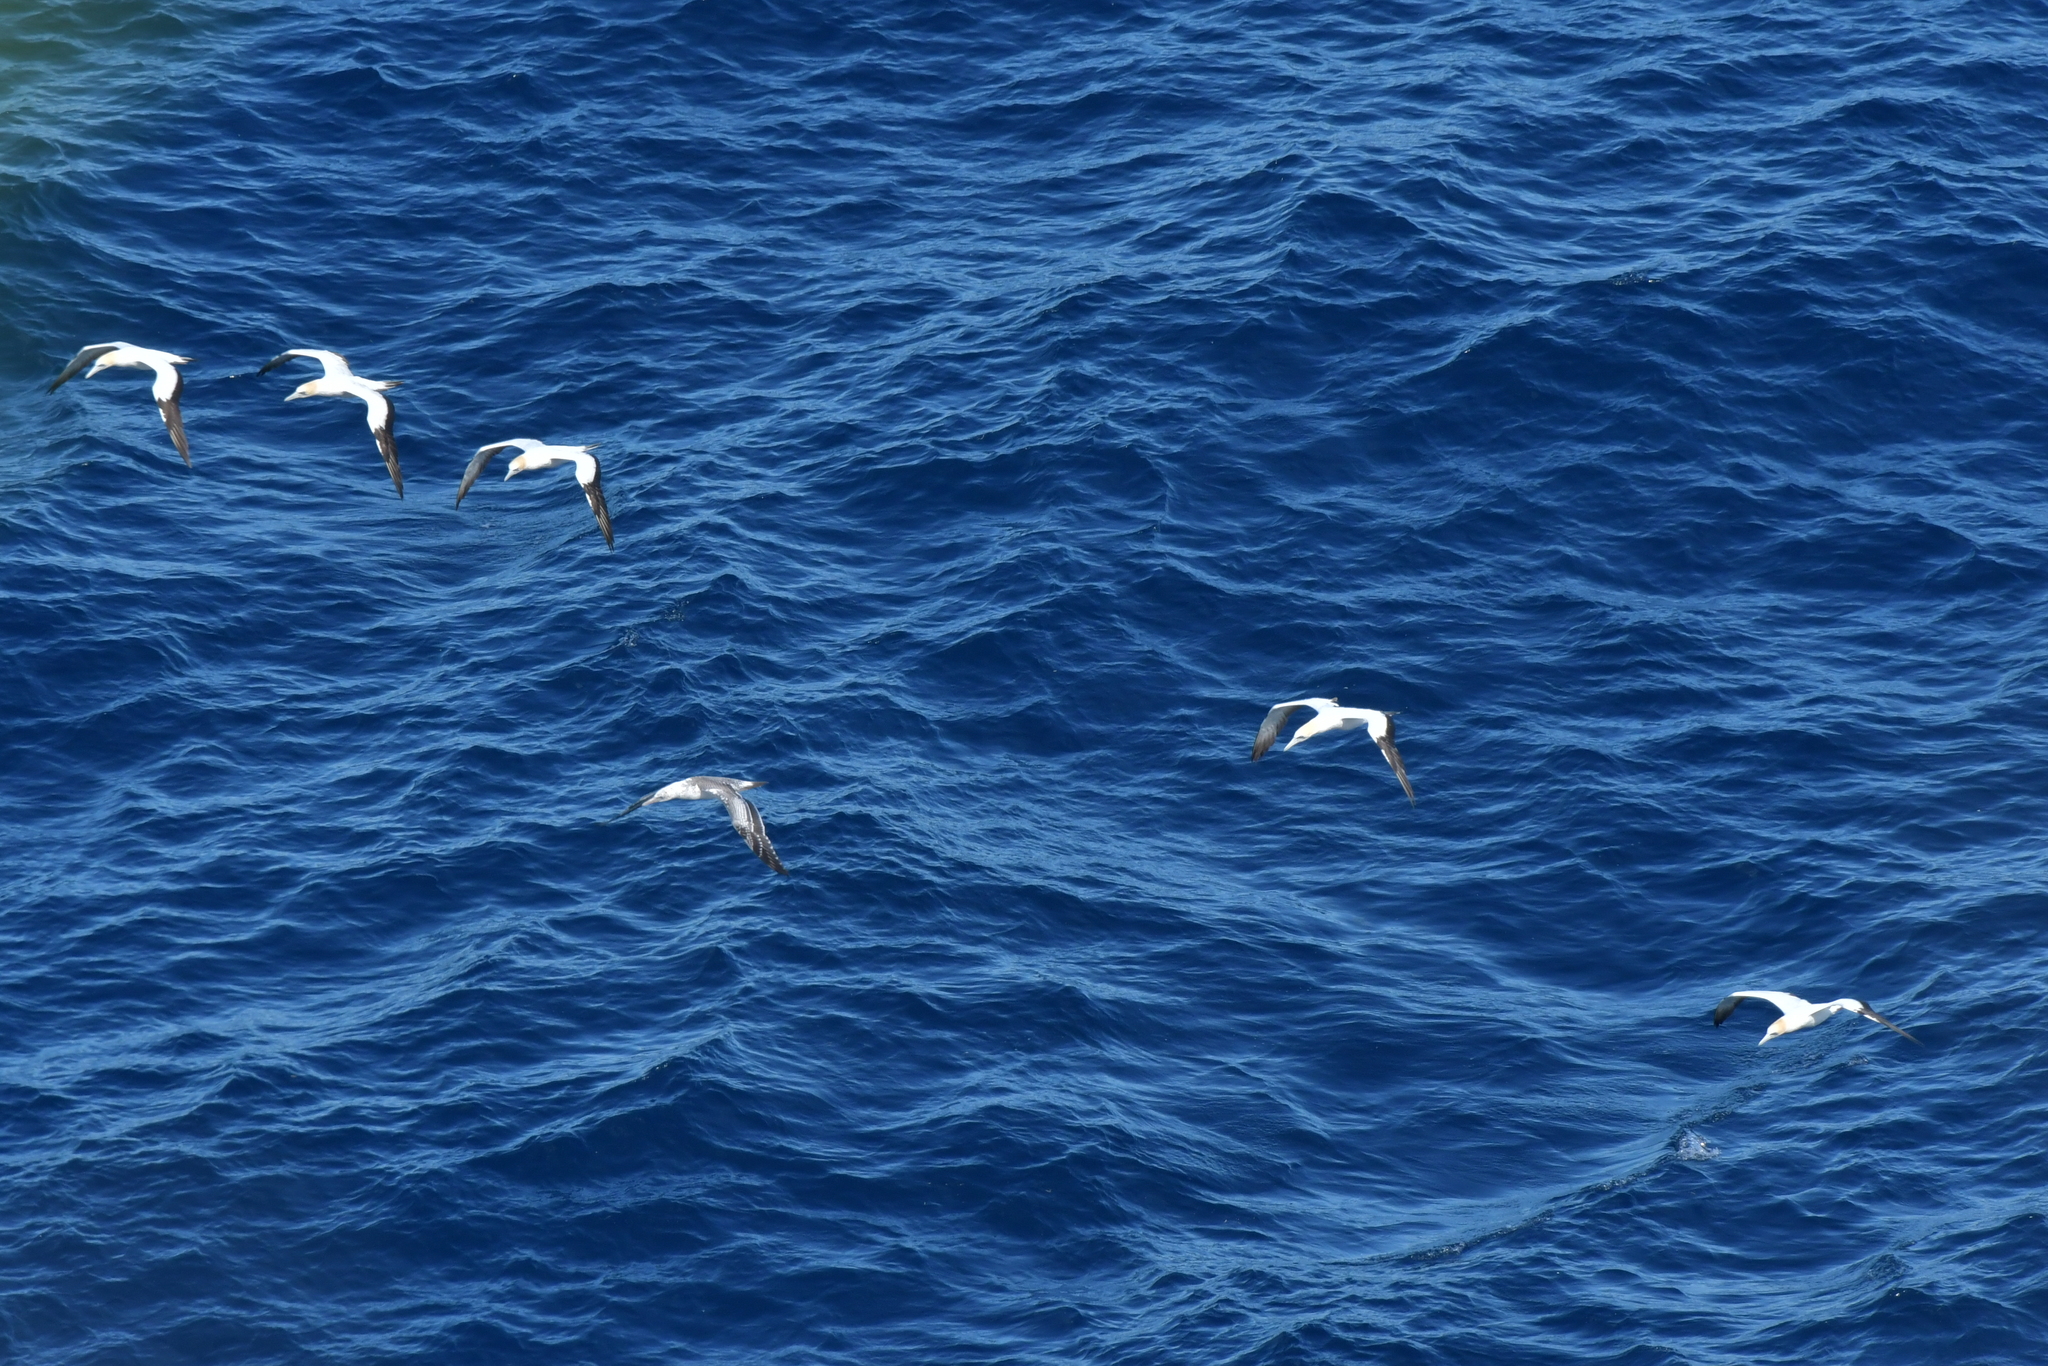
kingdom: Animalia
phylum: Chordata
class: Aves
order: Suliformes
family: Sulidae
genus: Morus
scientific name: Morus serrator
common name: Australasian gannet
